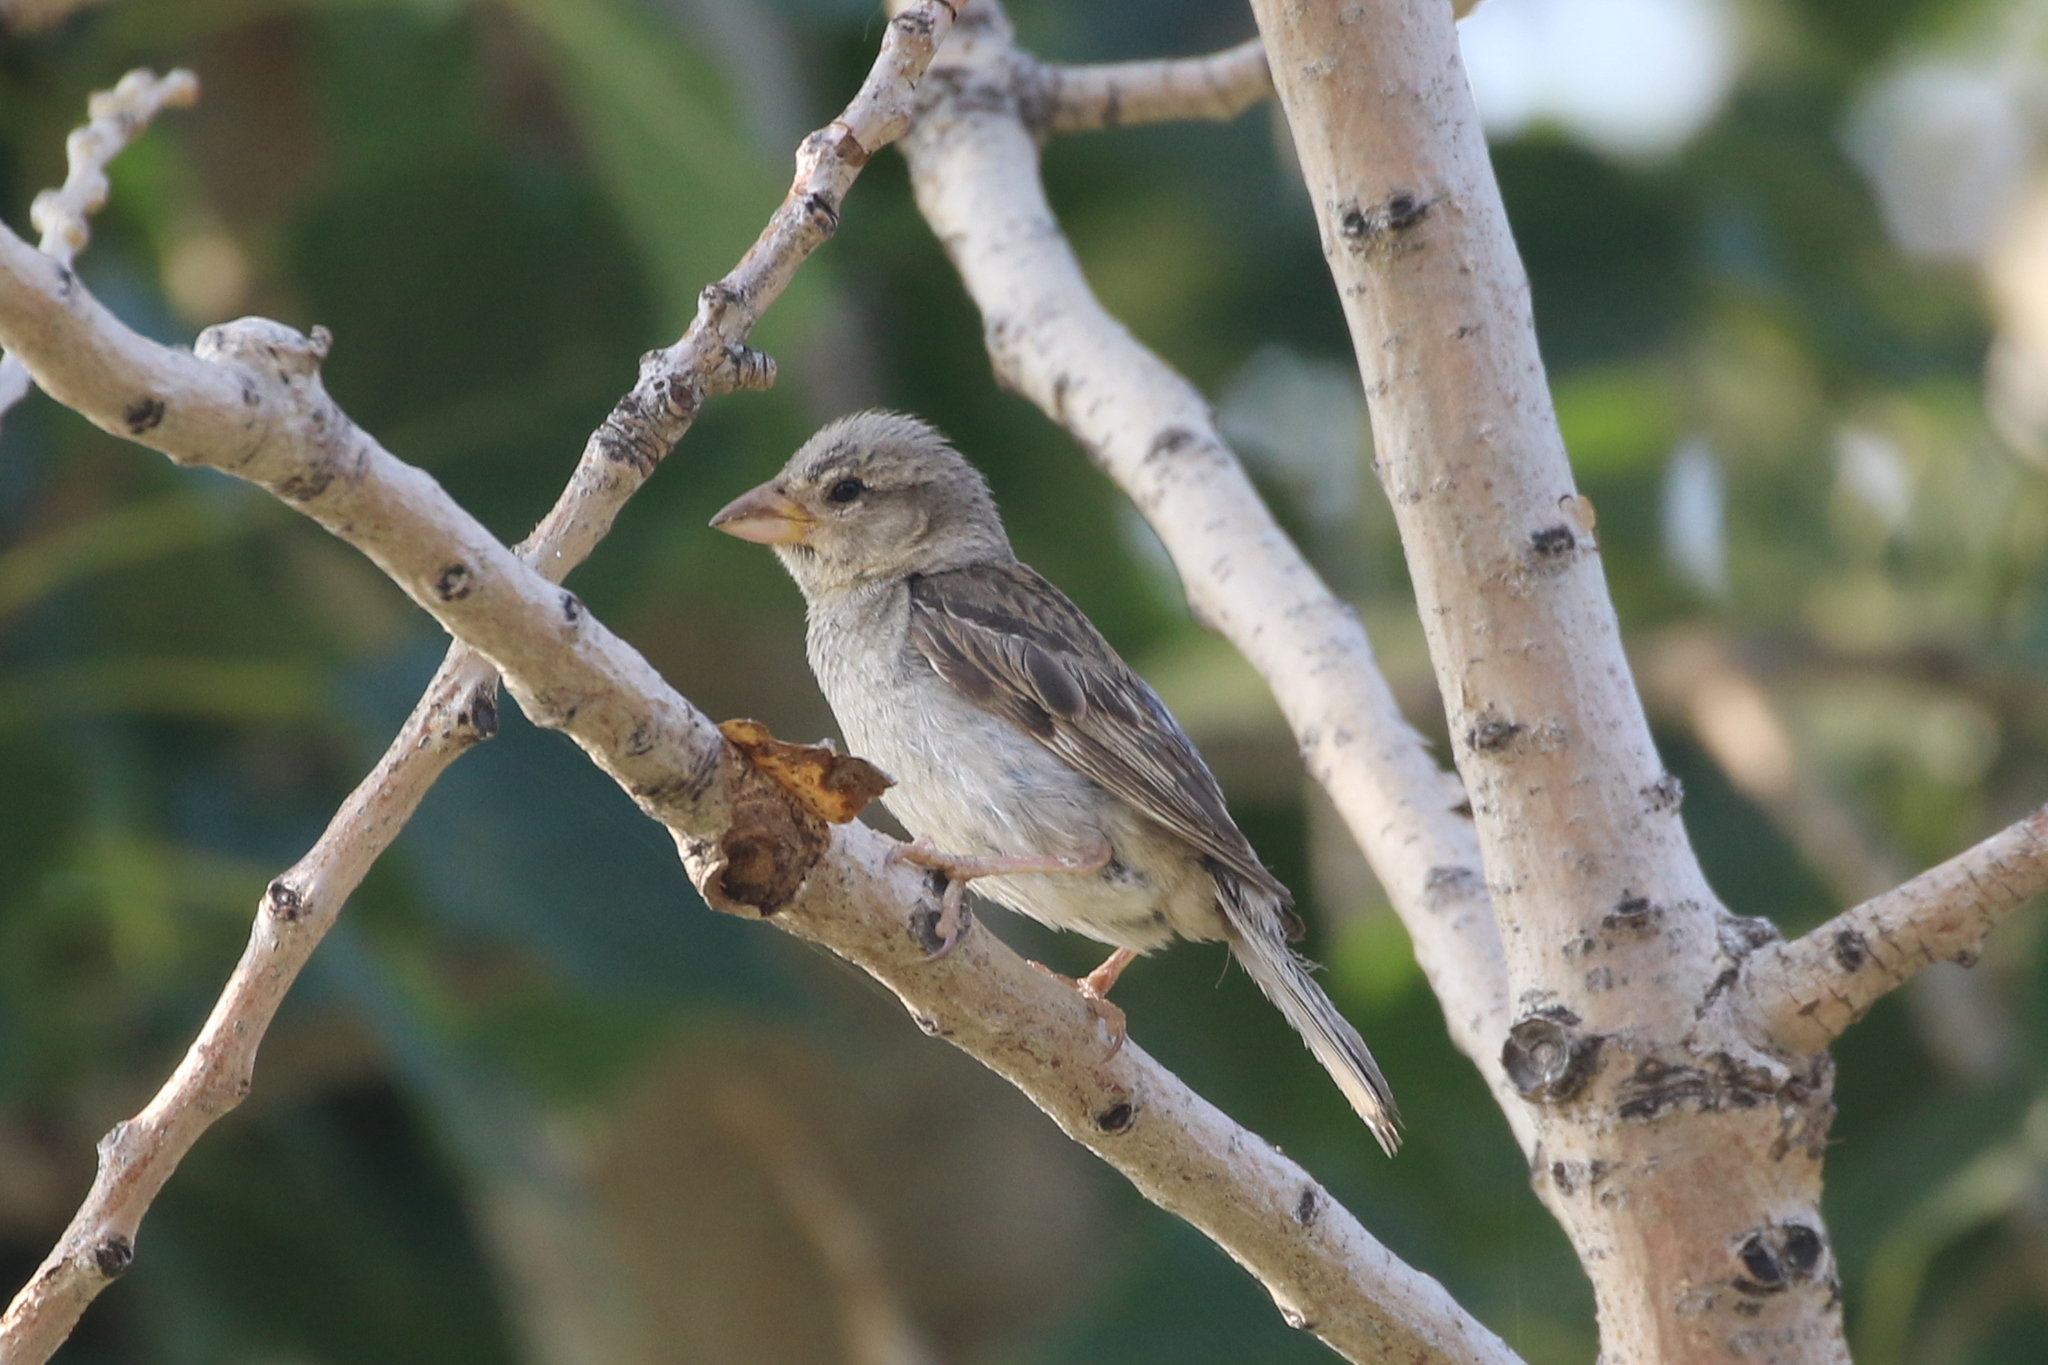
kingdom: Animalia
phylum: Chordata
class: Aves
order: Passeriformes
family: Passeridae
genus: Passer
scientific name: Passer domesticus
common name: House sparrow
